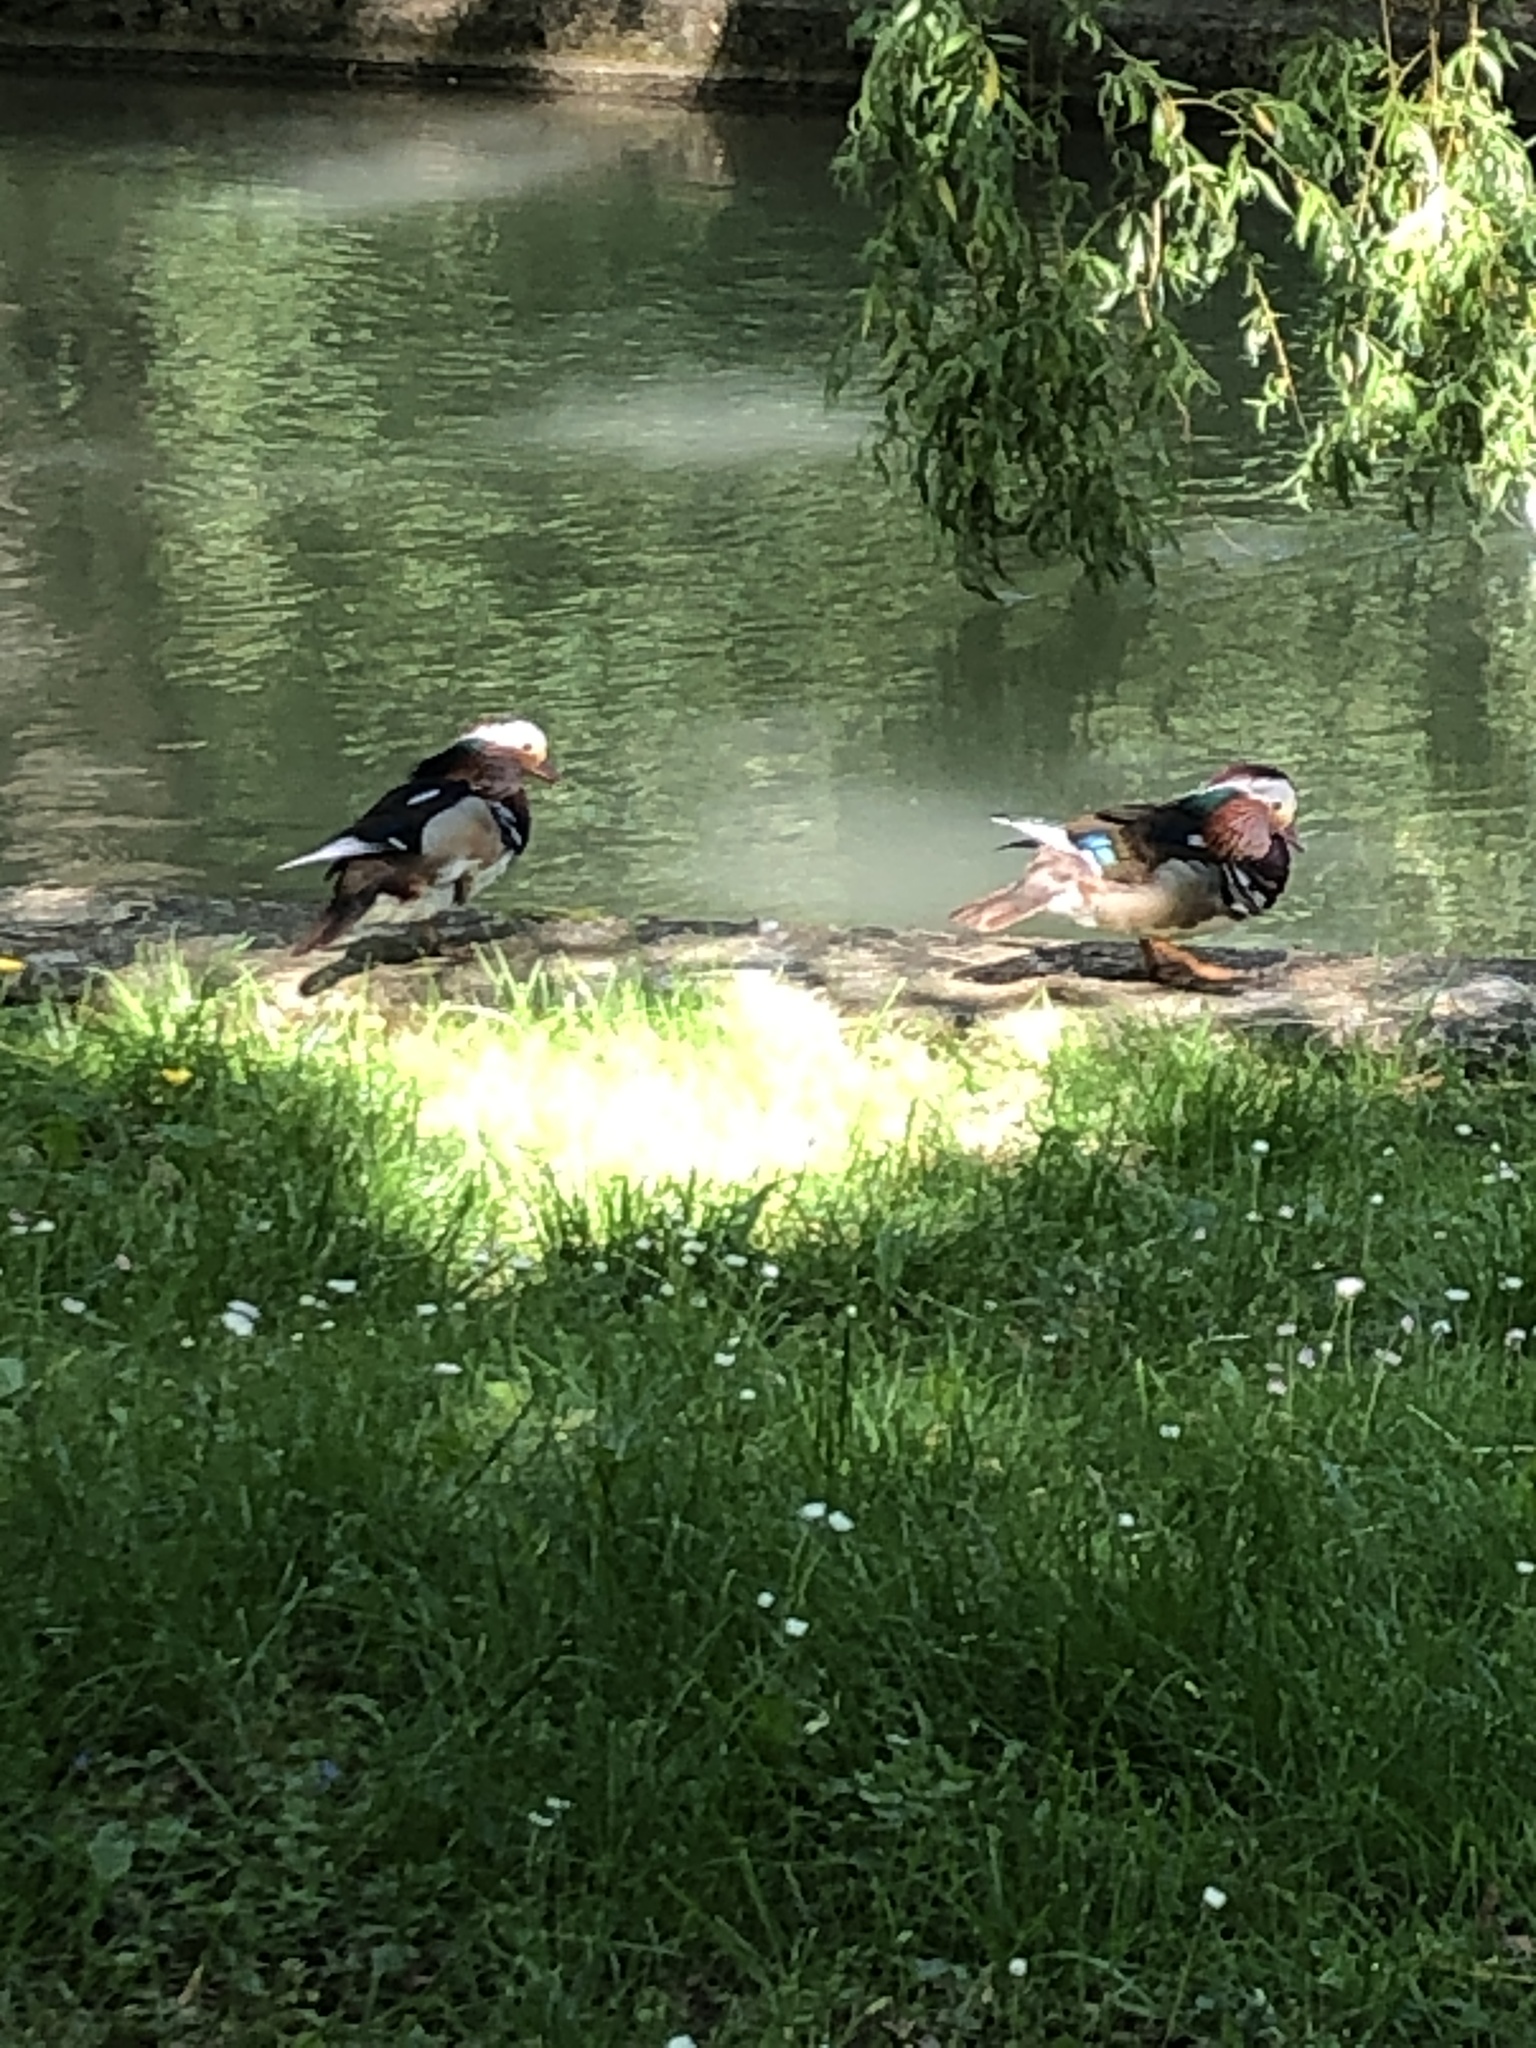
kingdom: Animalia
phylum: Chordata
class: Aves
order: Anseriformes
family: Anatidae
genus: Aix
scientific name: Aix galericulata
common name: Mandarin duck
